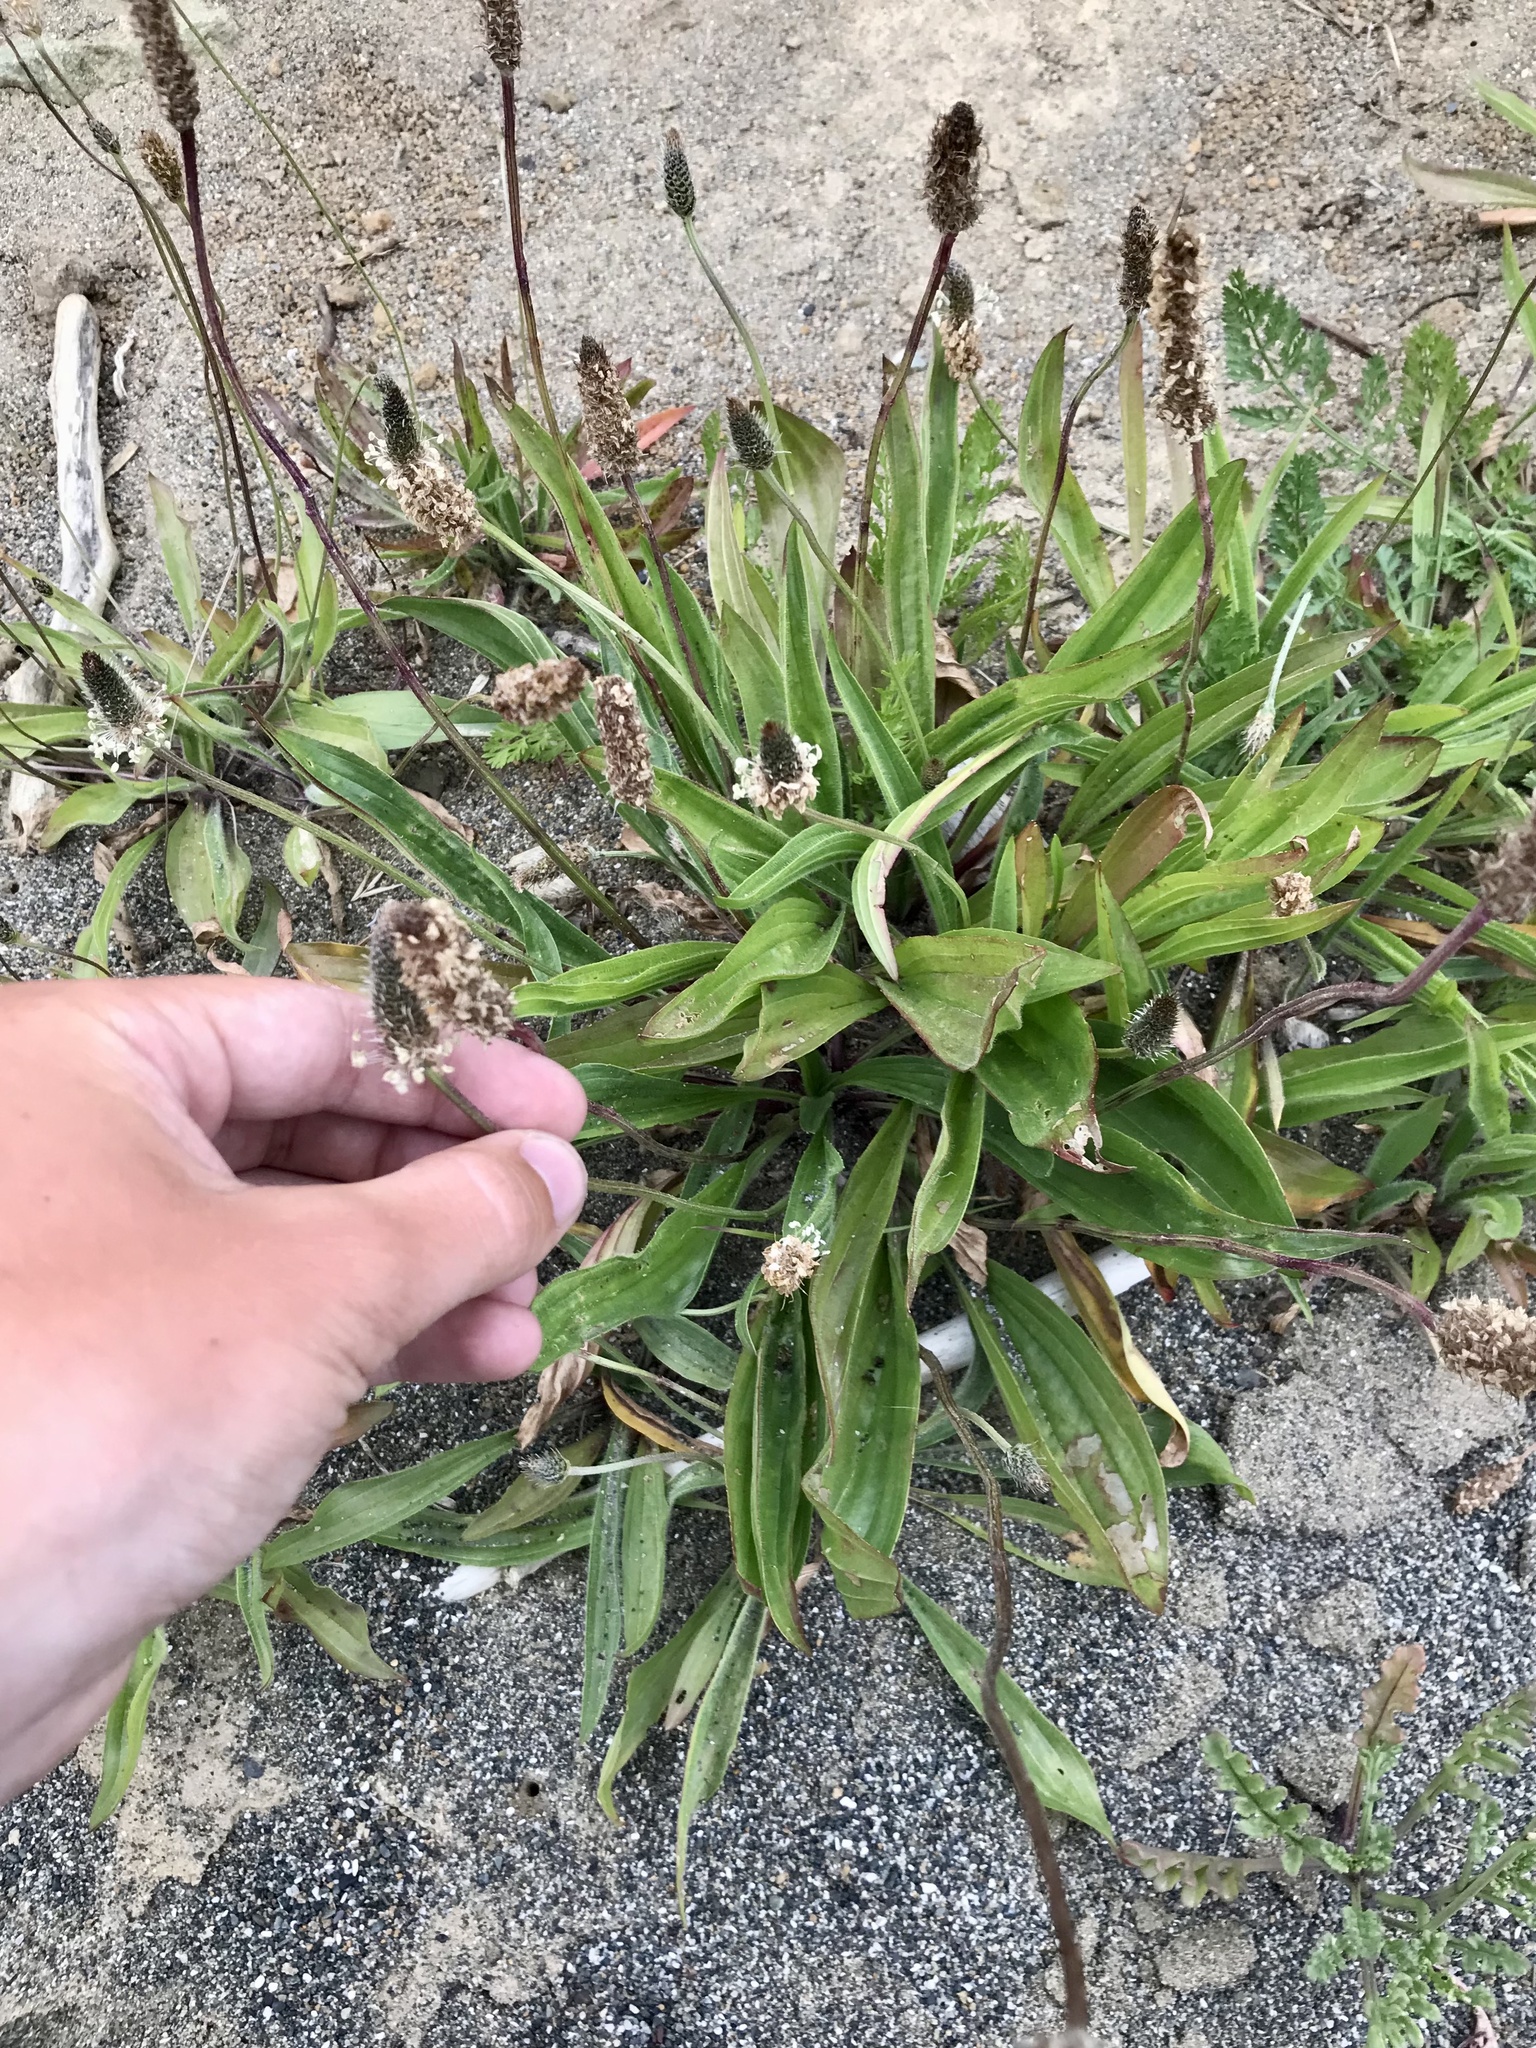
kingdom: Plantae
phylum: Tracheophyta
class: Magnoliopsida
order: Lamiales
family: Plantaginaceae
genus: Plantago
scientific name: Plantago lanceolata
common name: Ribwort plantain
